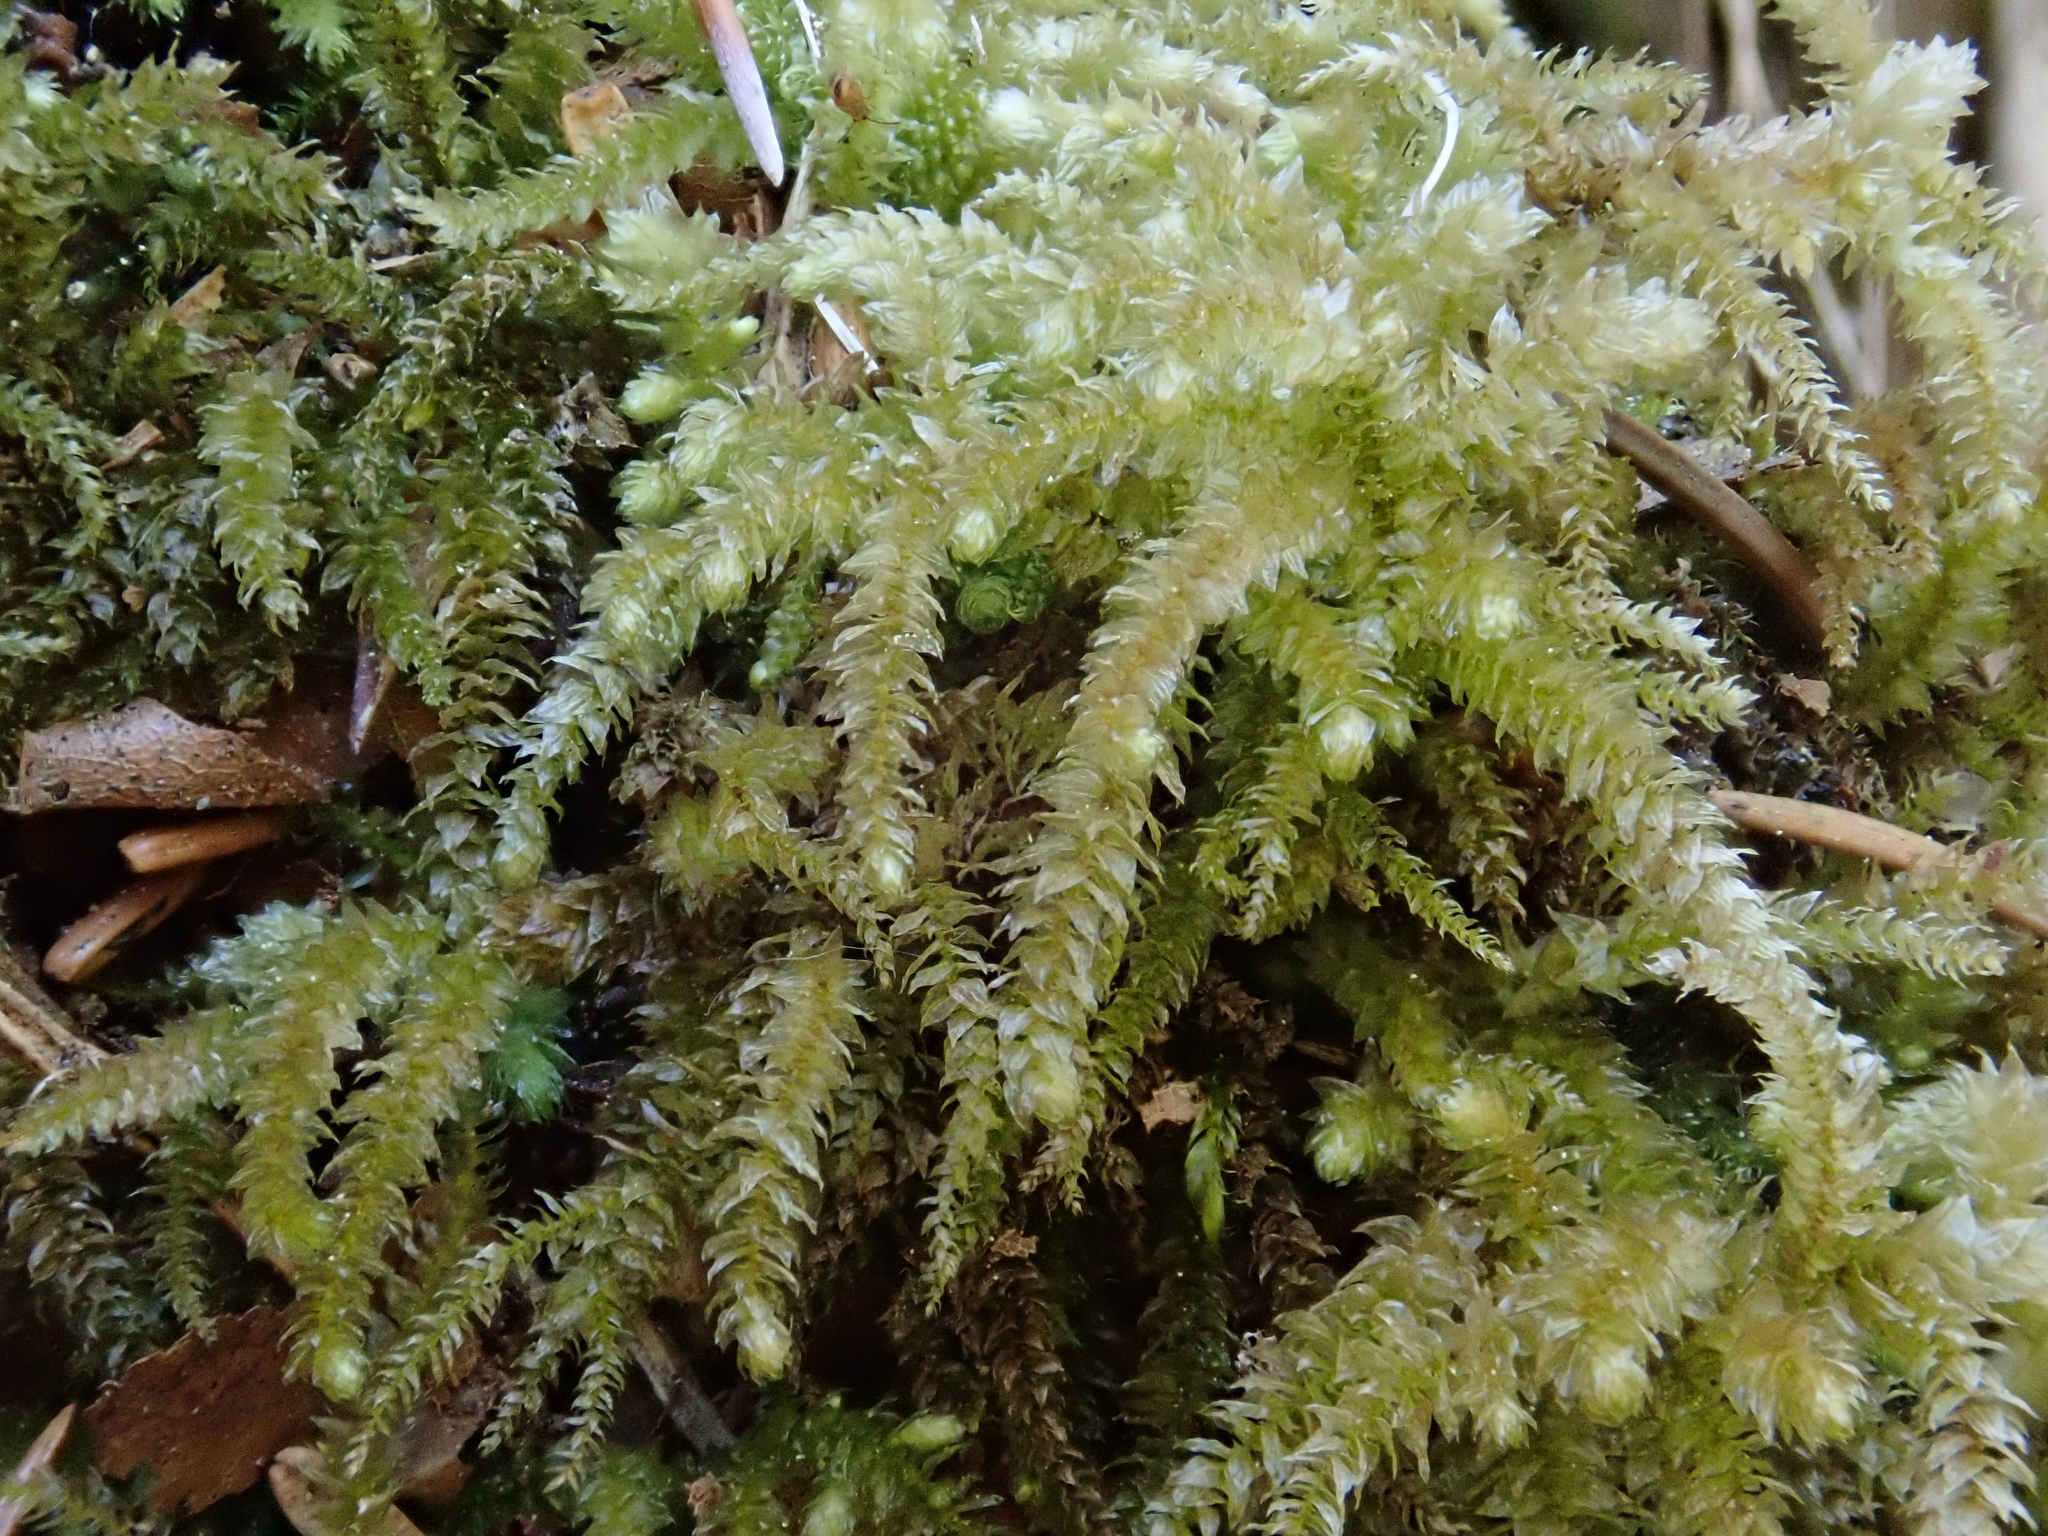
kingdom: Plantae
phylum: Bryophyta
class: Bryopsida
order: Hypnales
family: Brachytheciaceae
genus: Eurhynchium
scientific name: Eurhynchium angustirete
